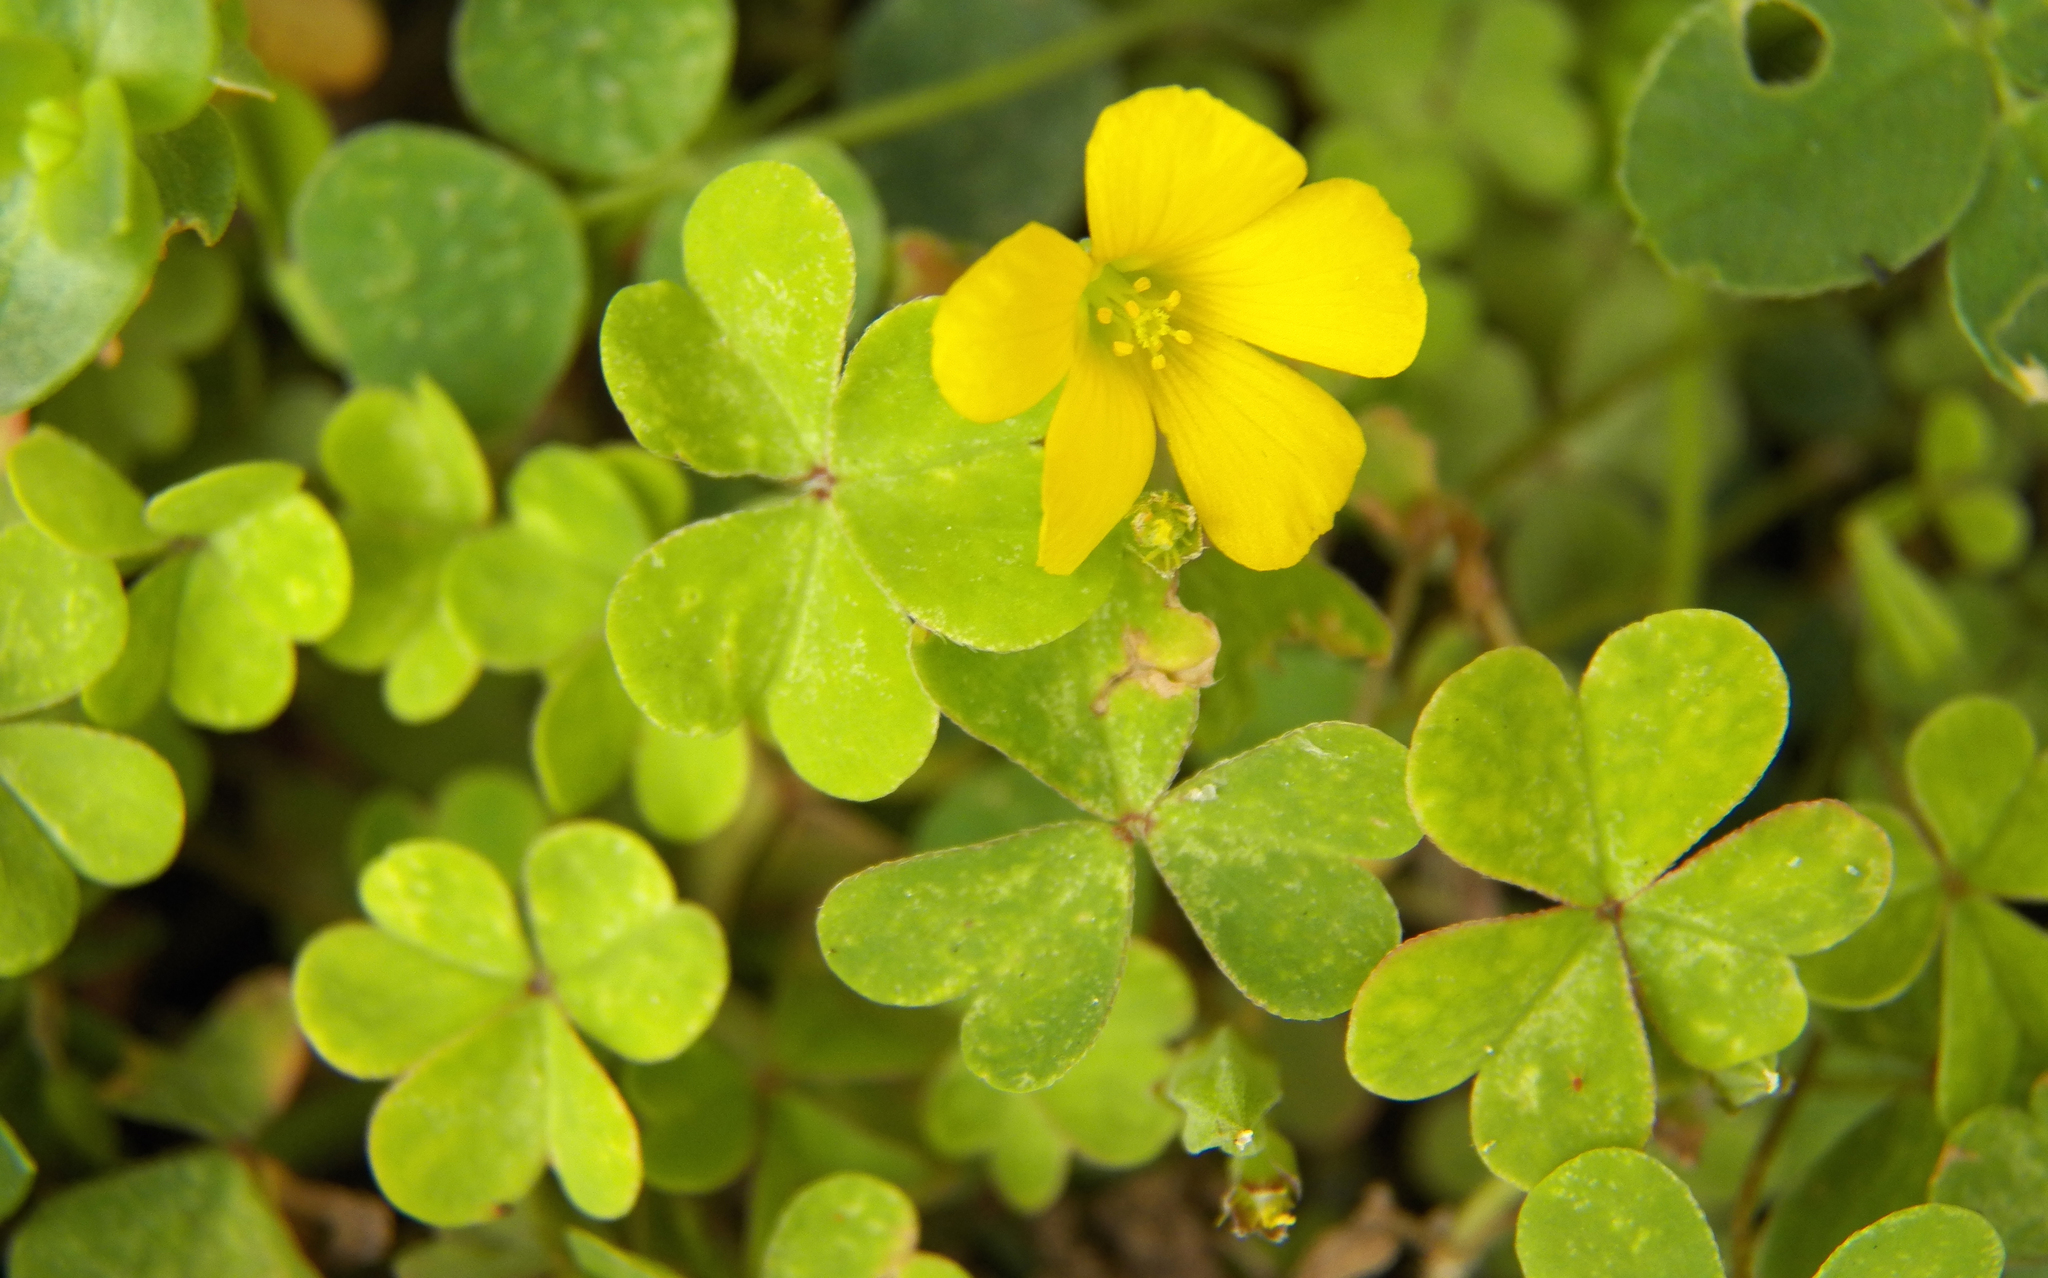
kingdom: Plantae
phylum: Tracheophyta
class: Magnoliopsida
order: Oxalidales
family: Oxalidaceae
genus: Oxalis
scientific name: Oxalis corniculata
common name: Procumbent yellow-sorrel
